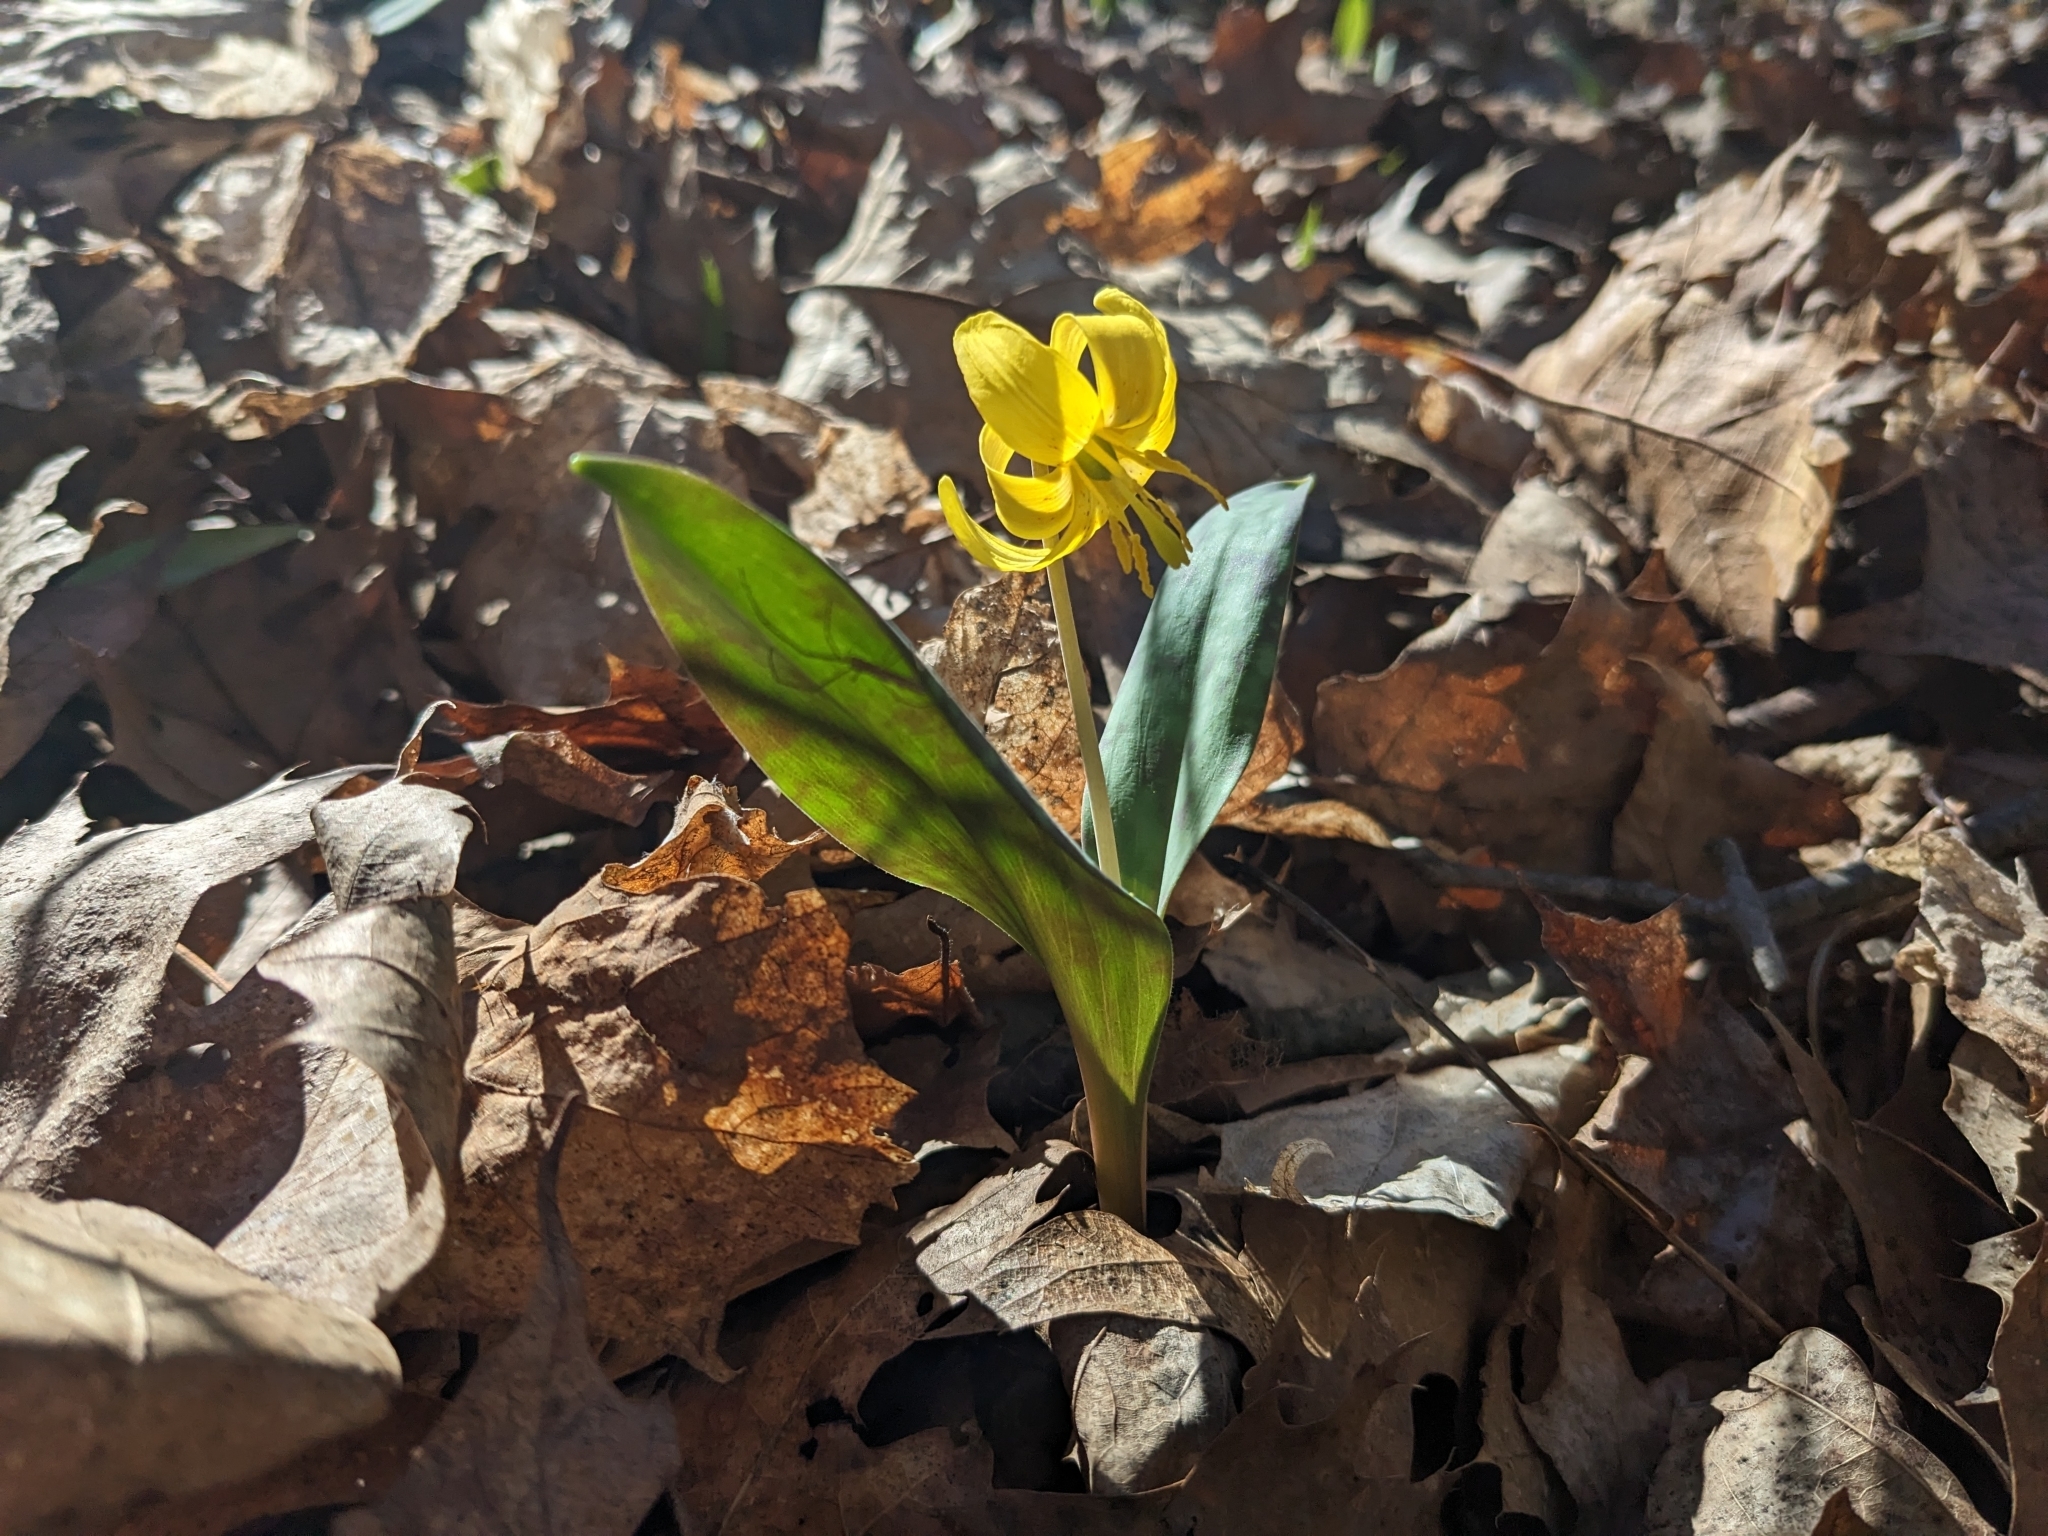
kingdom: Plantae
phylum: Tracheophyta
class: Liliopsida
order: Liliales
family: Liliaceae
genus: Erythronium
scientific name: Erythronium americanum
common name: Yellow adder's-tongue
